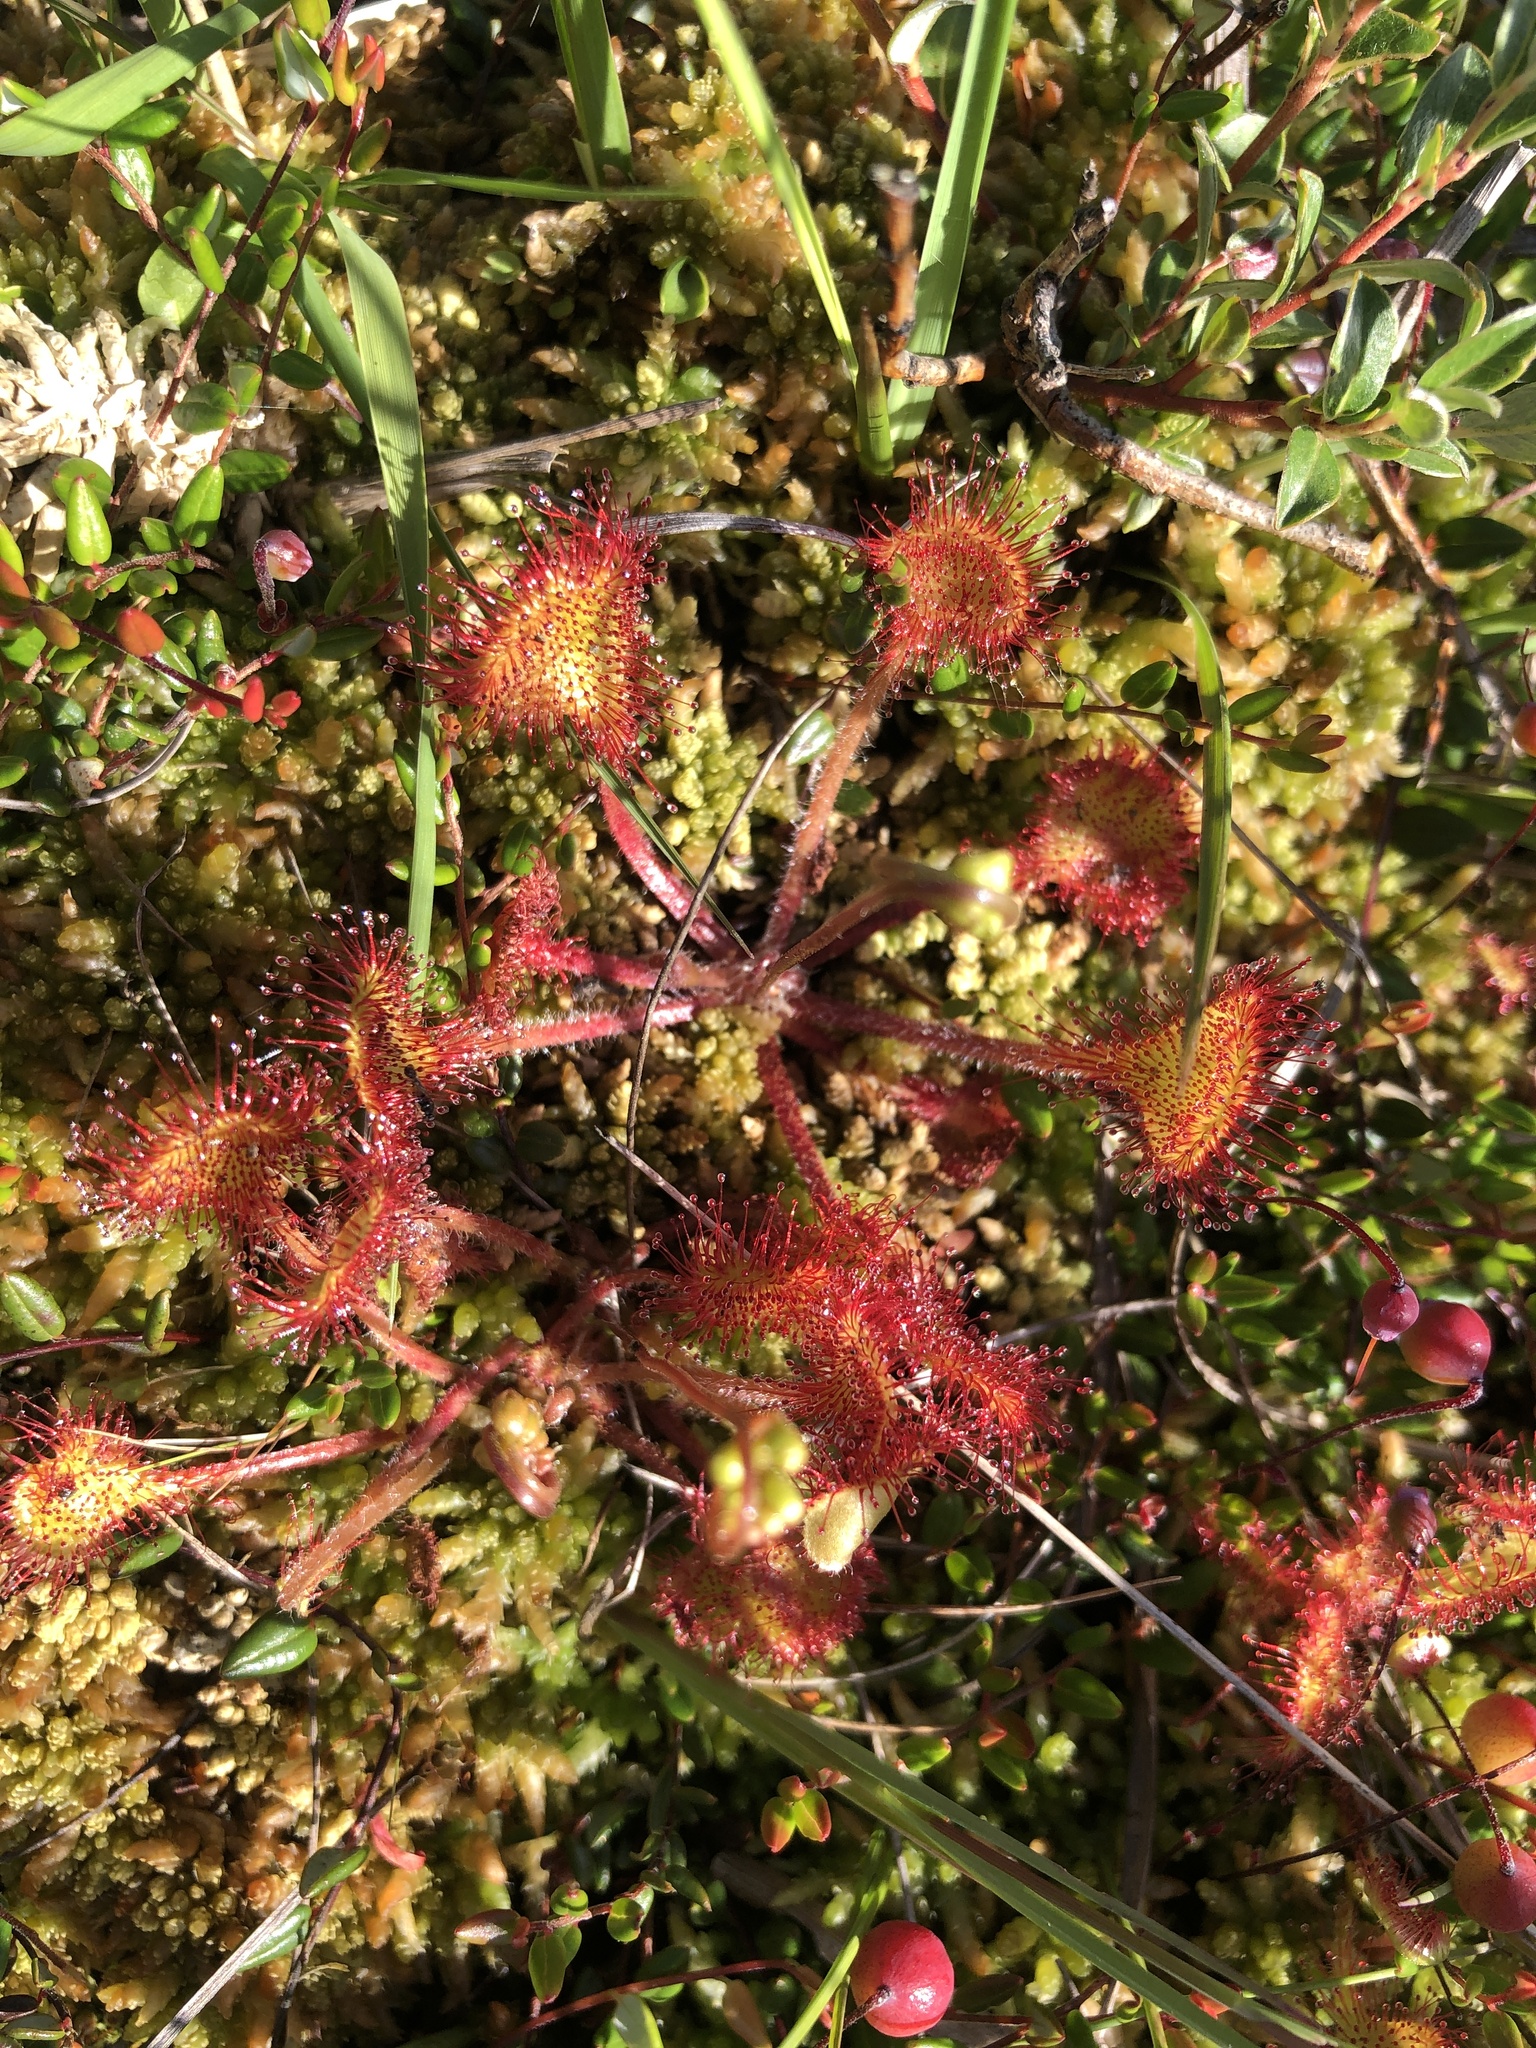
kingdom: Plantae
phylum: Tracheophyta
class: Magnoliopsida
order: Caryophyllales
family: Droseraceae
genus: Drosera
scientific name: Drosera rotundifolia
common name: Round-leaved sundew
